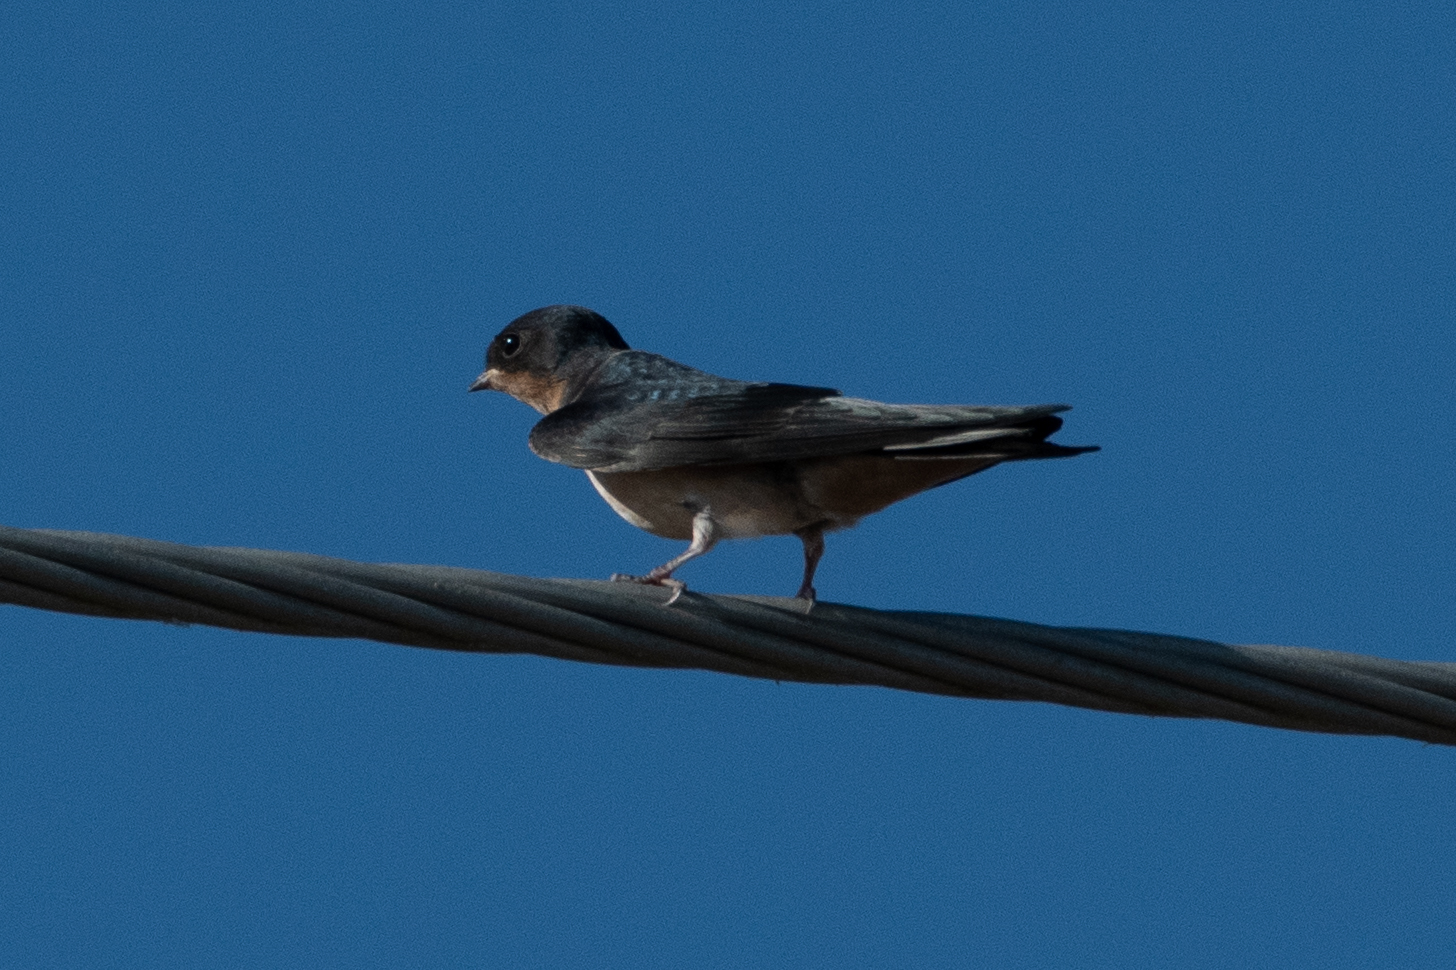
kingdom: Animalia
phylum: Chordata
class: Aves
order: Passeriformes
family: Hirundinidae
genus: Hirundo
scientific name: Hirundo rustica
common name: Barn swallow
